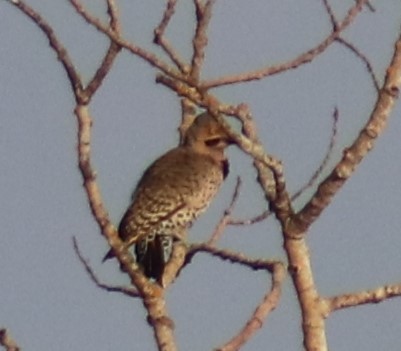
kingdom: Animalia
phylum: Chordata
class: Aves
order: Piciformes
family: Picidae
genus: Colaptes
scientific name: Colaptes auratus
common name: Northern flicker
